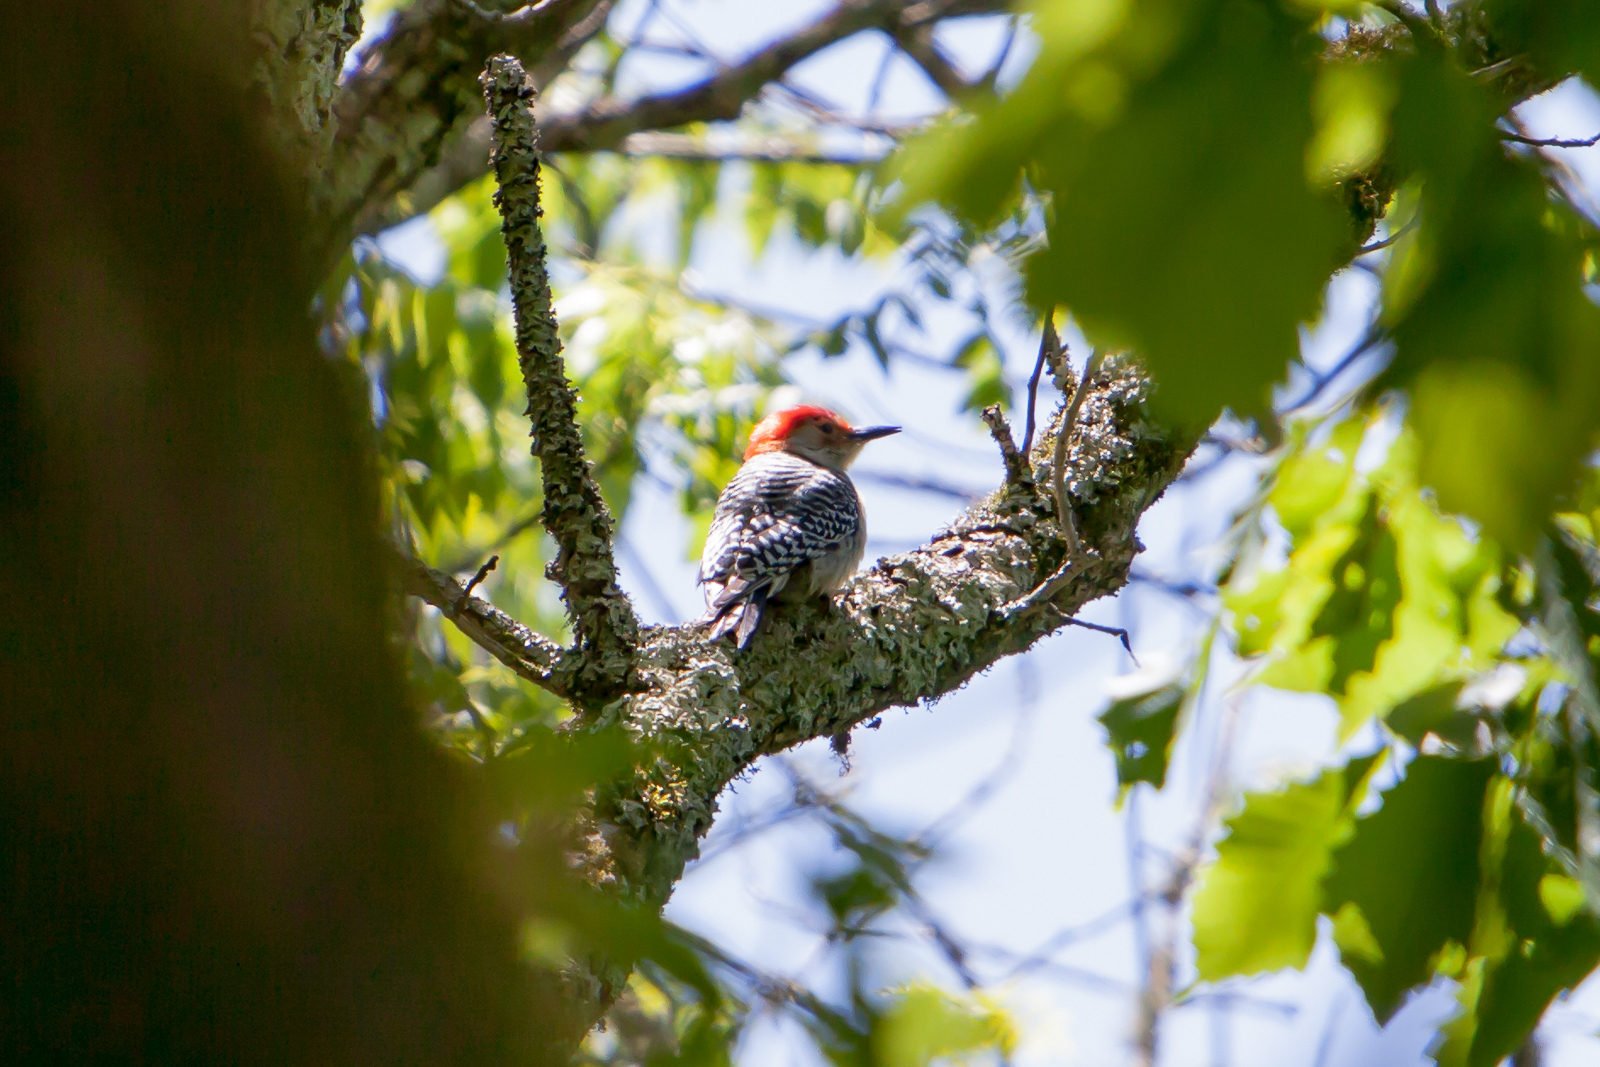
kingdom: Animalia
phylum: Chordata
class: Aves
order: Piciformes
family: Picidae
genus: Melanerpes
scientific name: Melanerpes carolinus
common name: Red-bellied woodpecker
